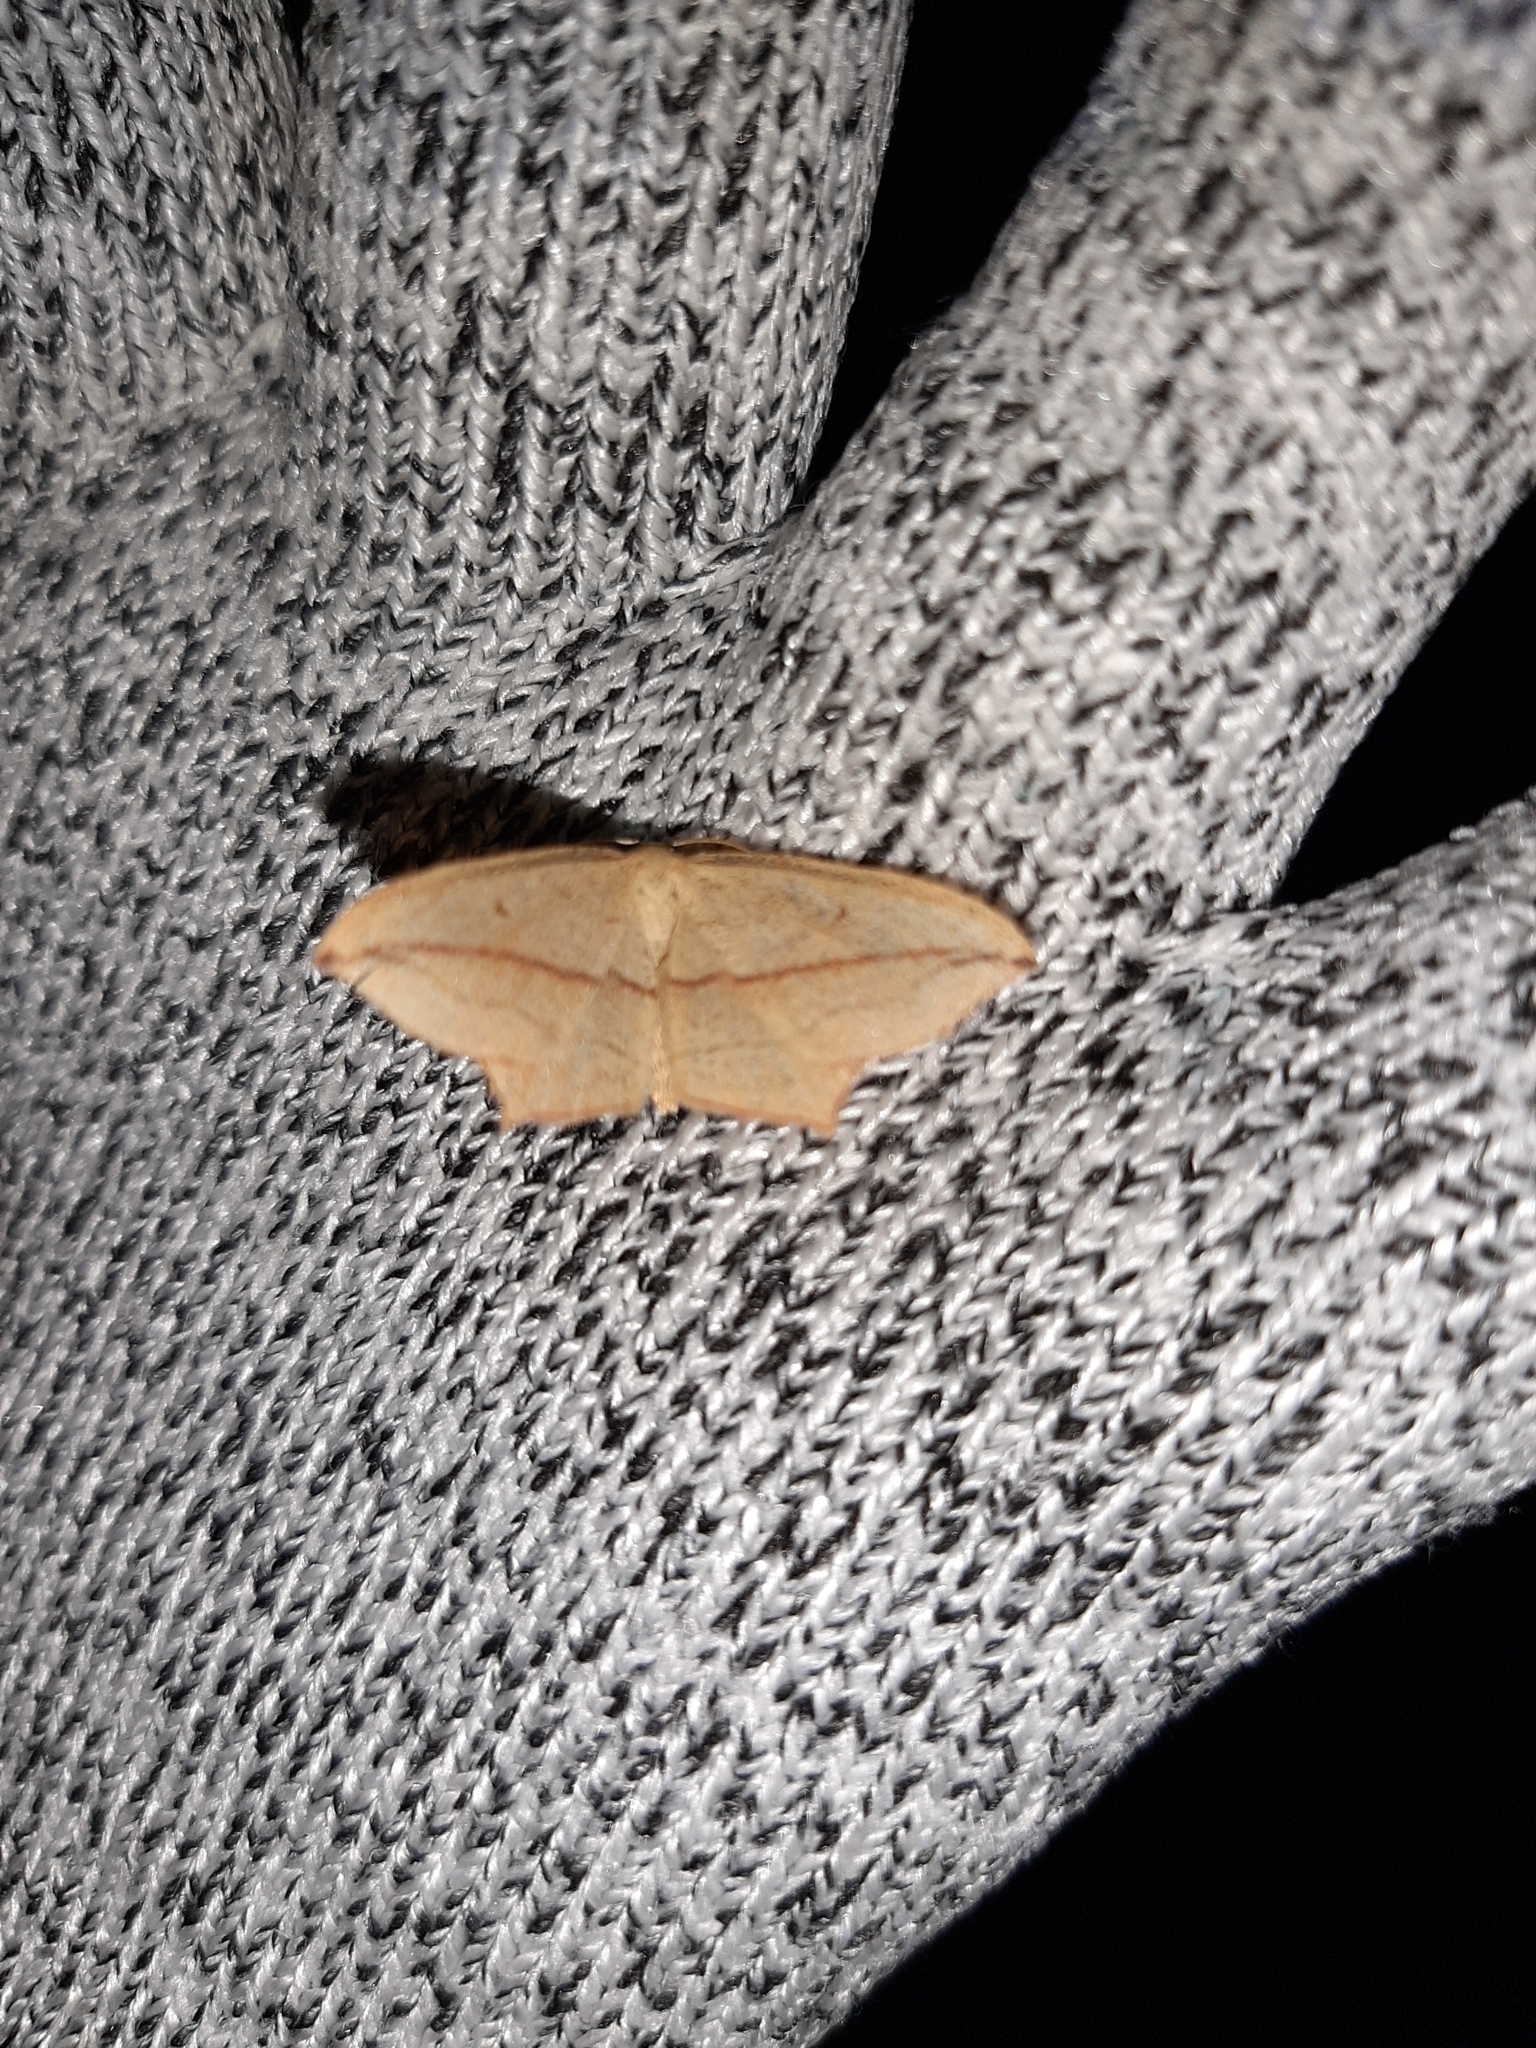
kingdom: Animalia
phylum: Arthropoda
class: Insecta
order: Lepidoptera
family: Geometridae
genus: Timandra
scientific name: Timandra comae
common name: Blood-vein
